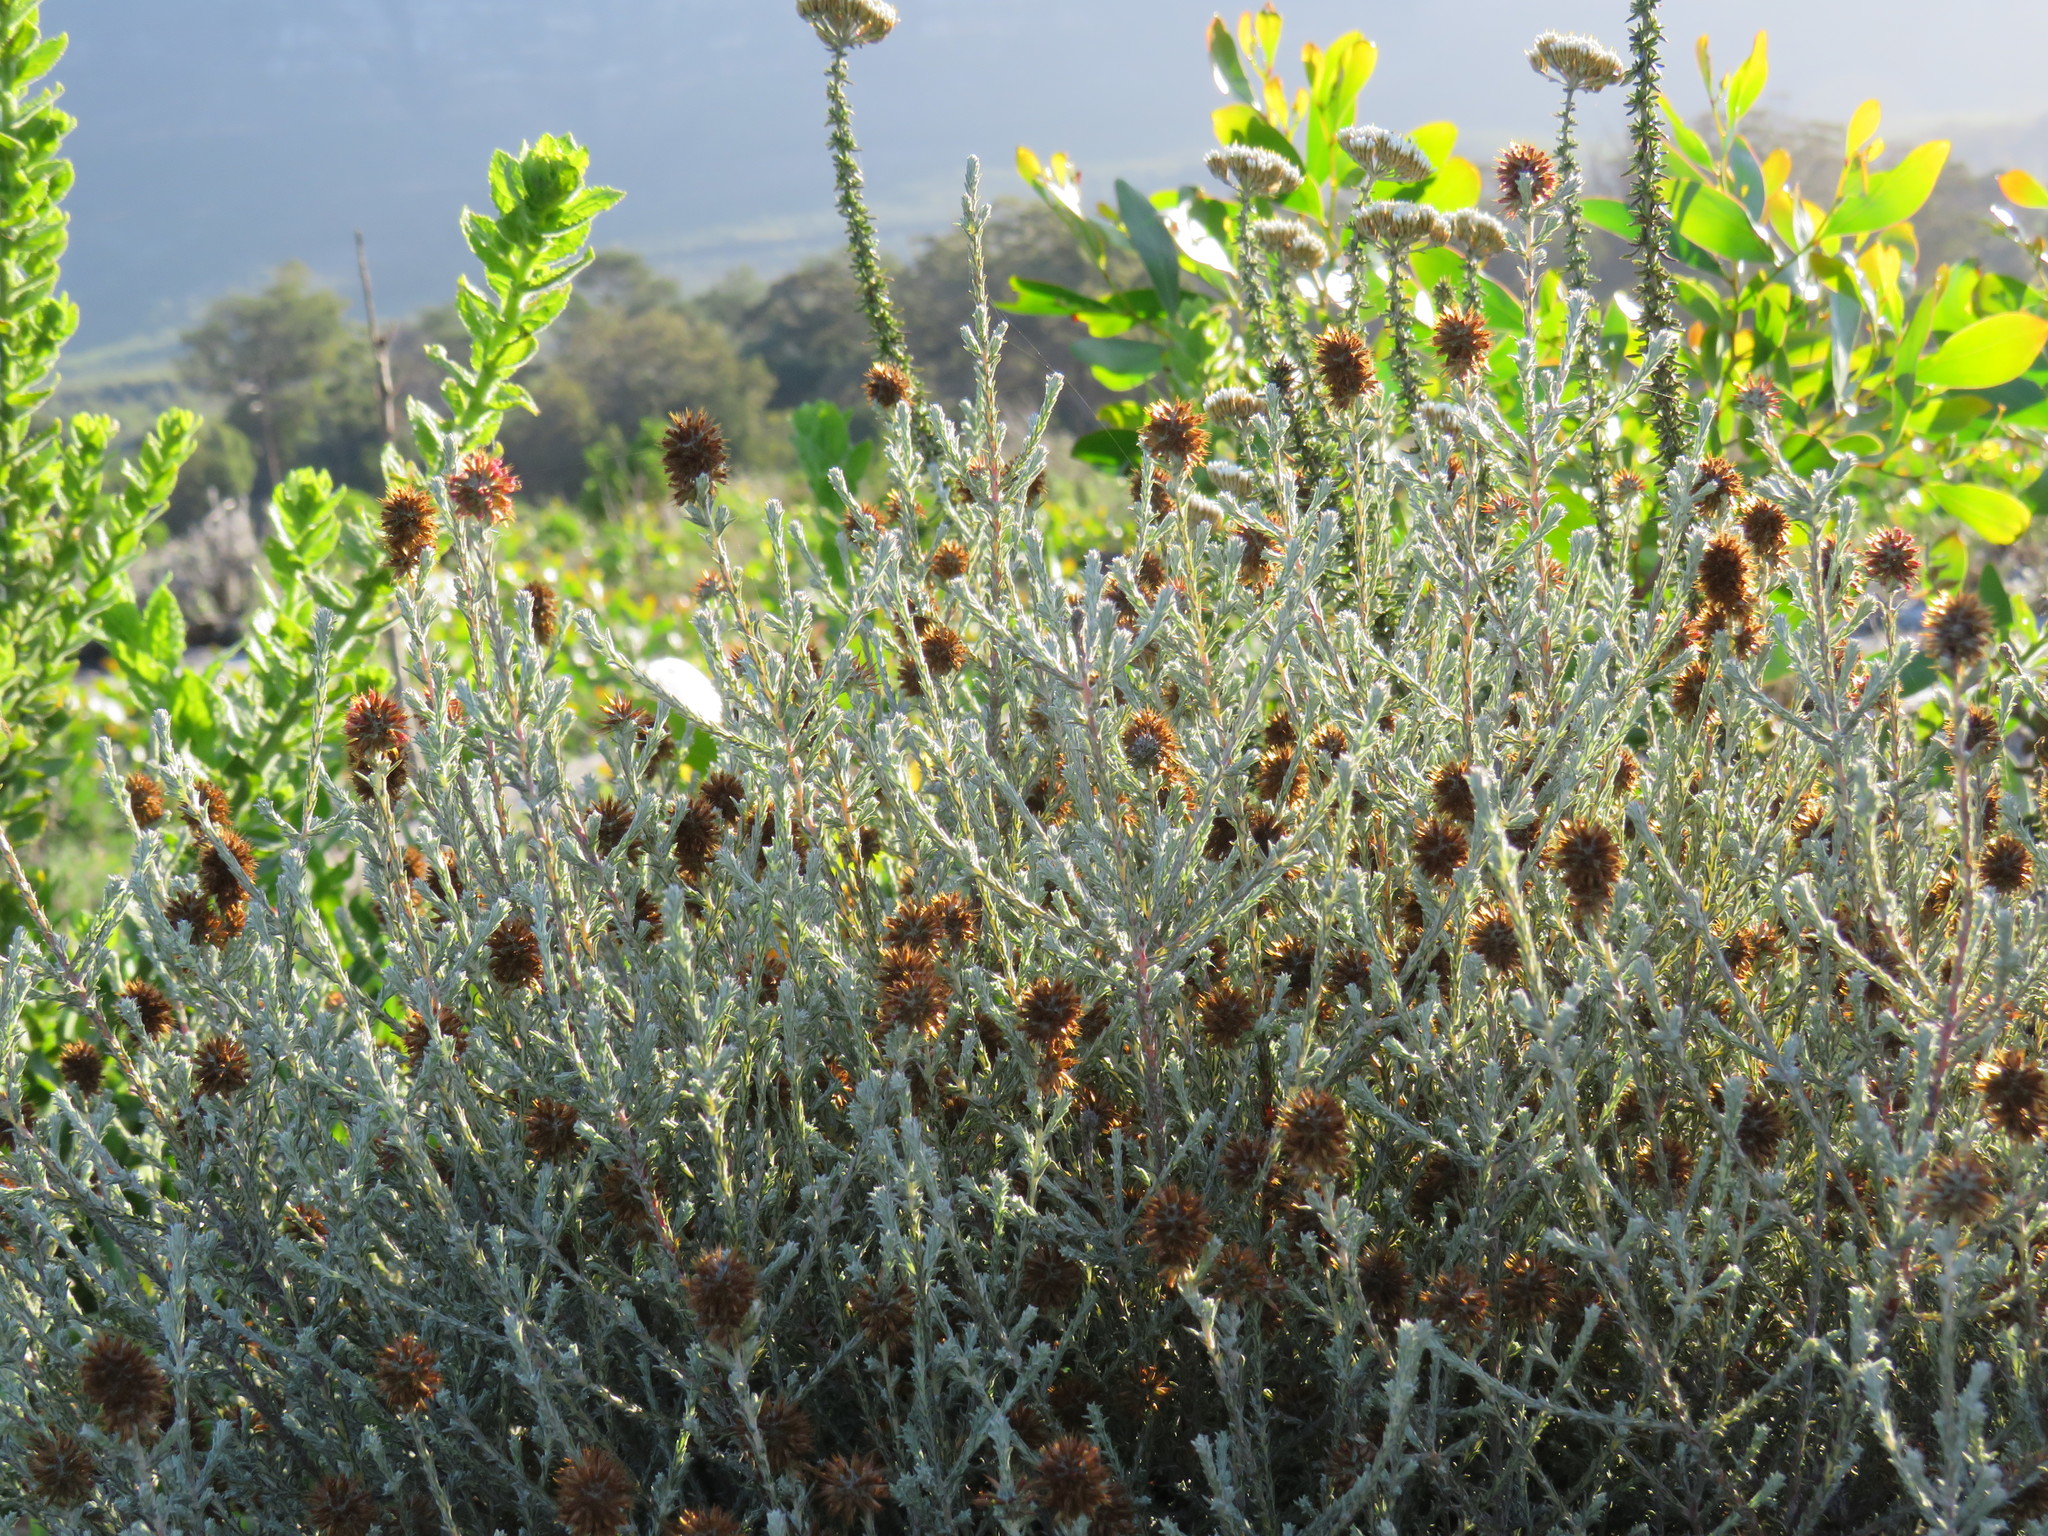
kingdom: Plantae
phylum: Tracheophyta
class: Magnoliopsida
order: Asterales
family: Asteraceae
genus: Seriphium
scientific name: Seriphium cinereum
